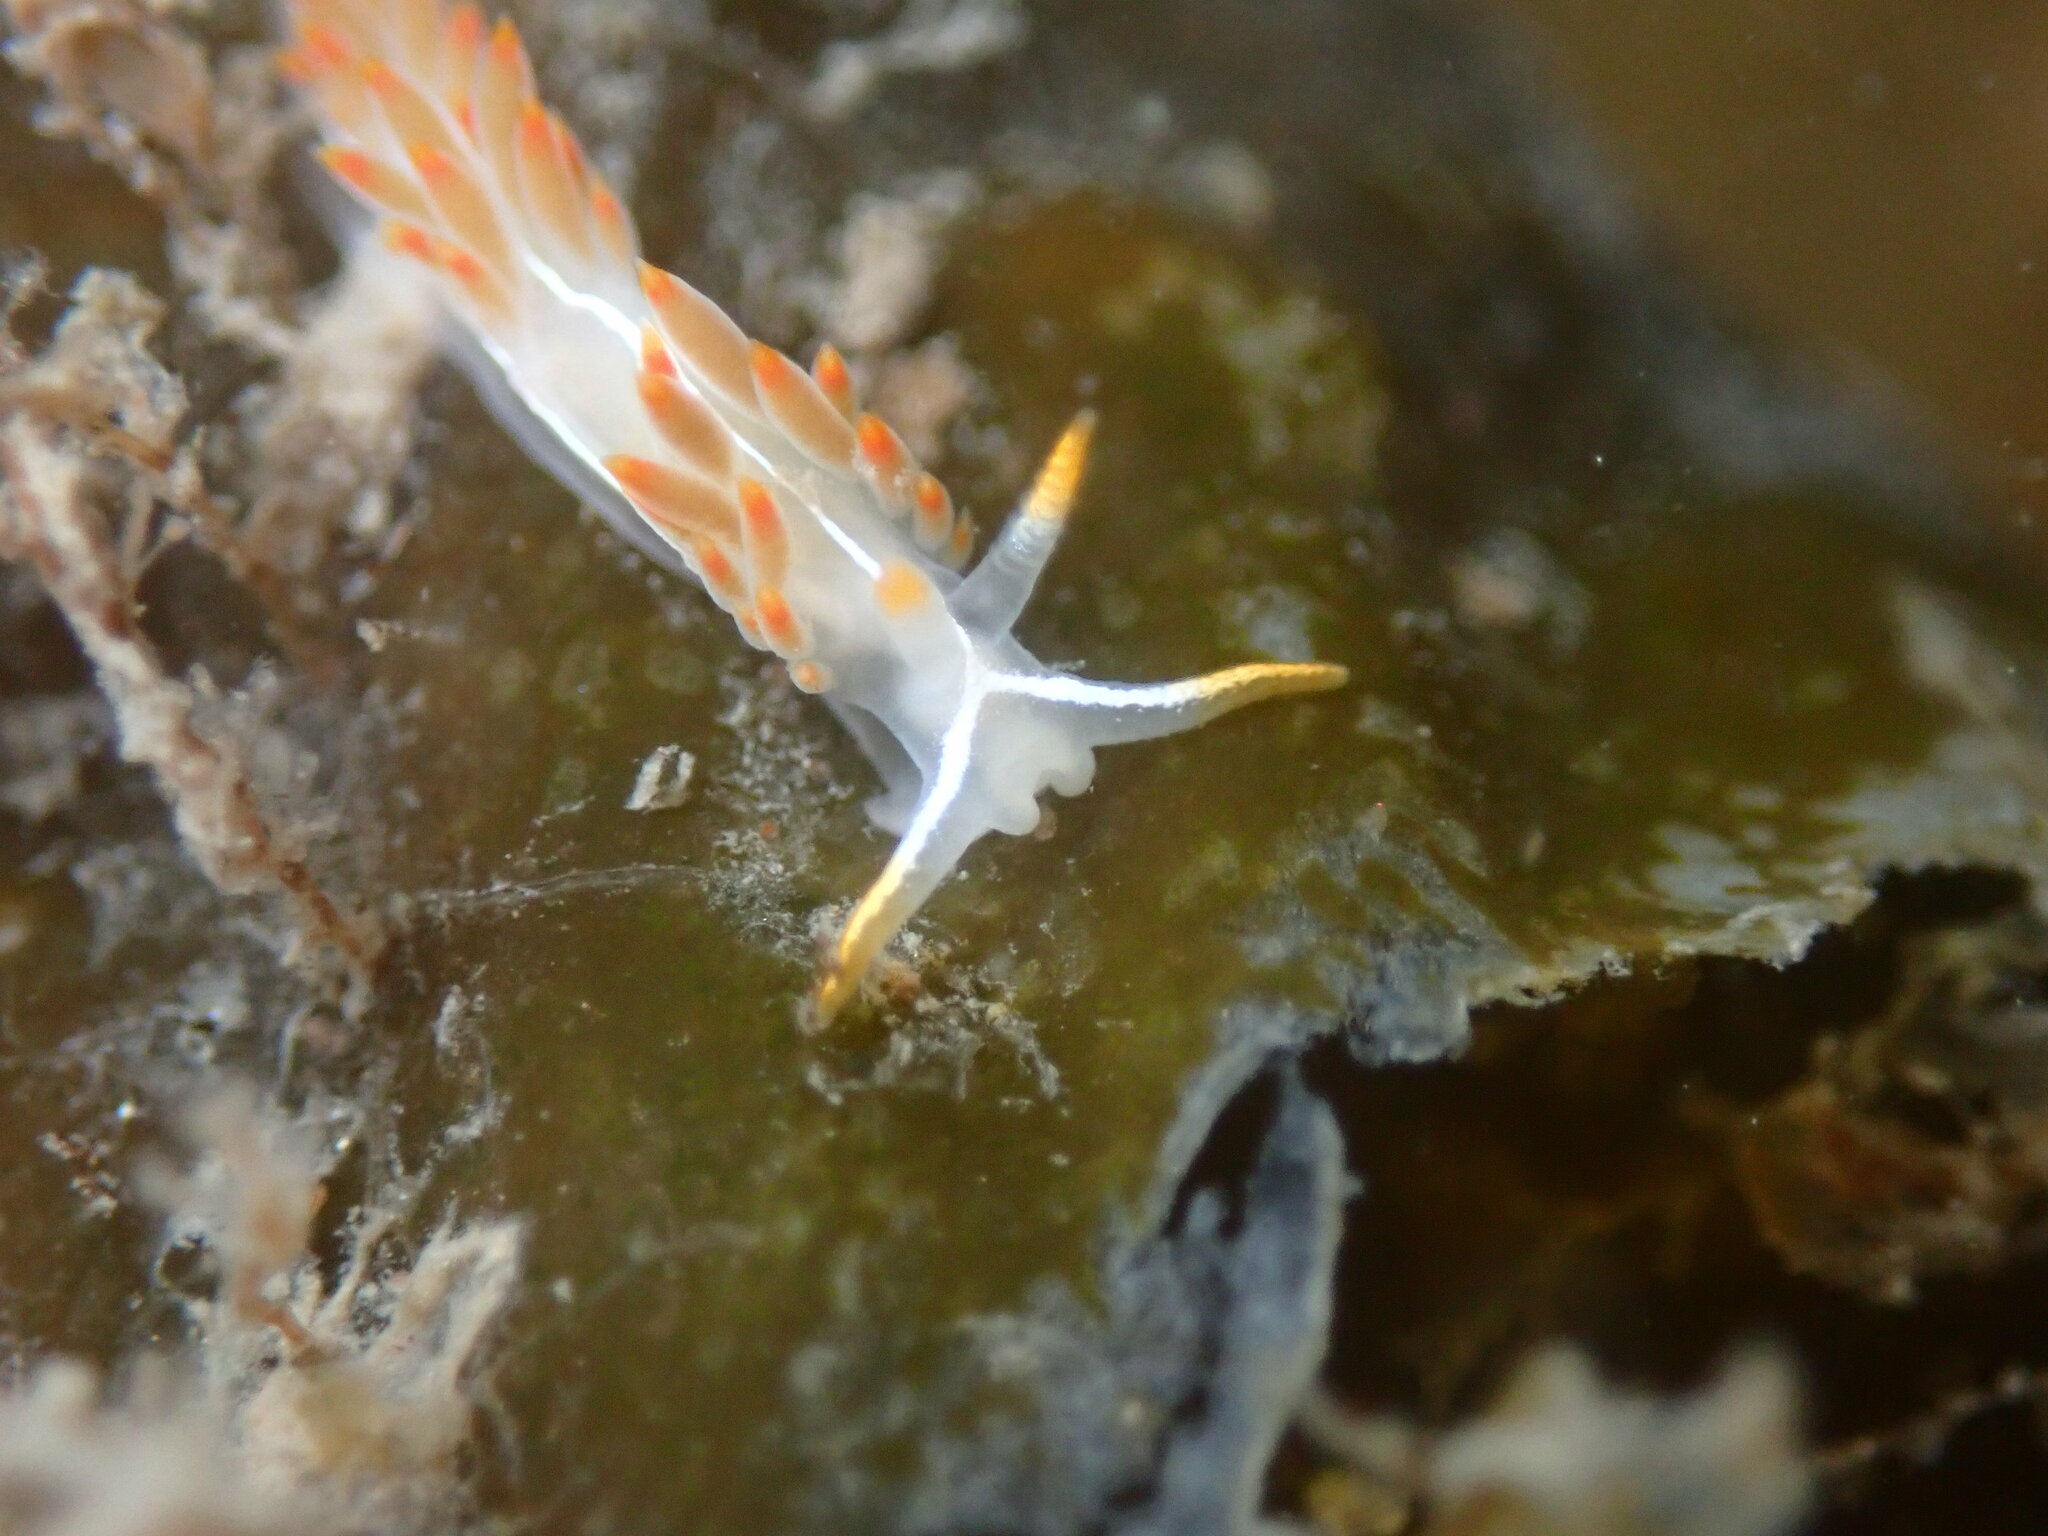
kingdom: Animalia
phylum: Mollusca
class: Gastropoda
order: Nudibranchia
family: Coryphellidae
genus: Coryphella
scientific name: Coryphella trilineata
